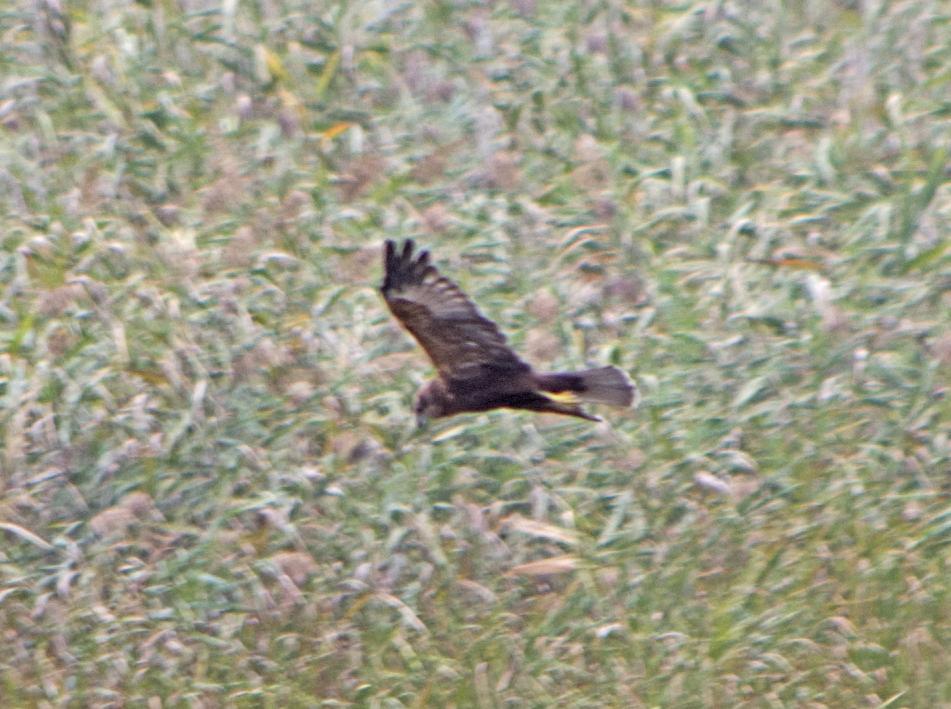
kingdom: Animalia
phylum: Chordata
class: Aves
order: Accipitriformes
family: Accipitridae
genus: Circus
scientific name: Circus aeruginosus
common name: Western marsh harrier
